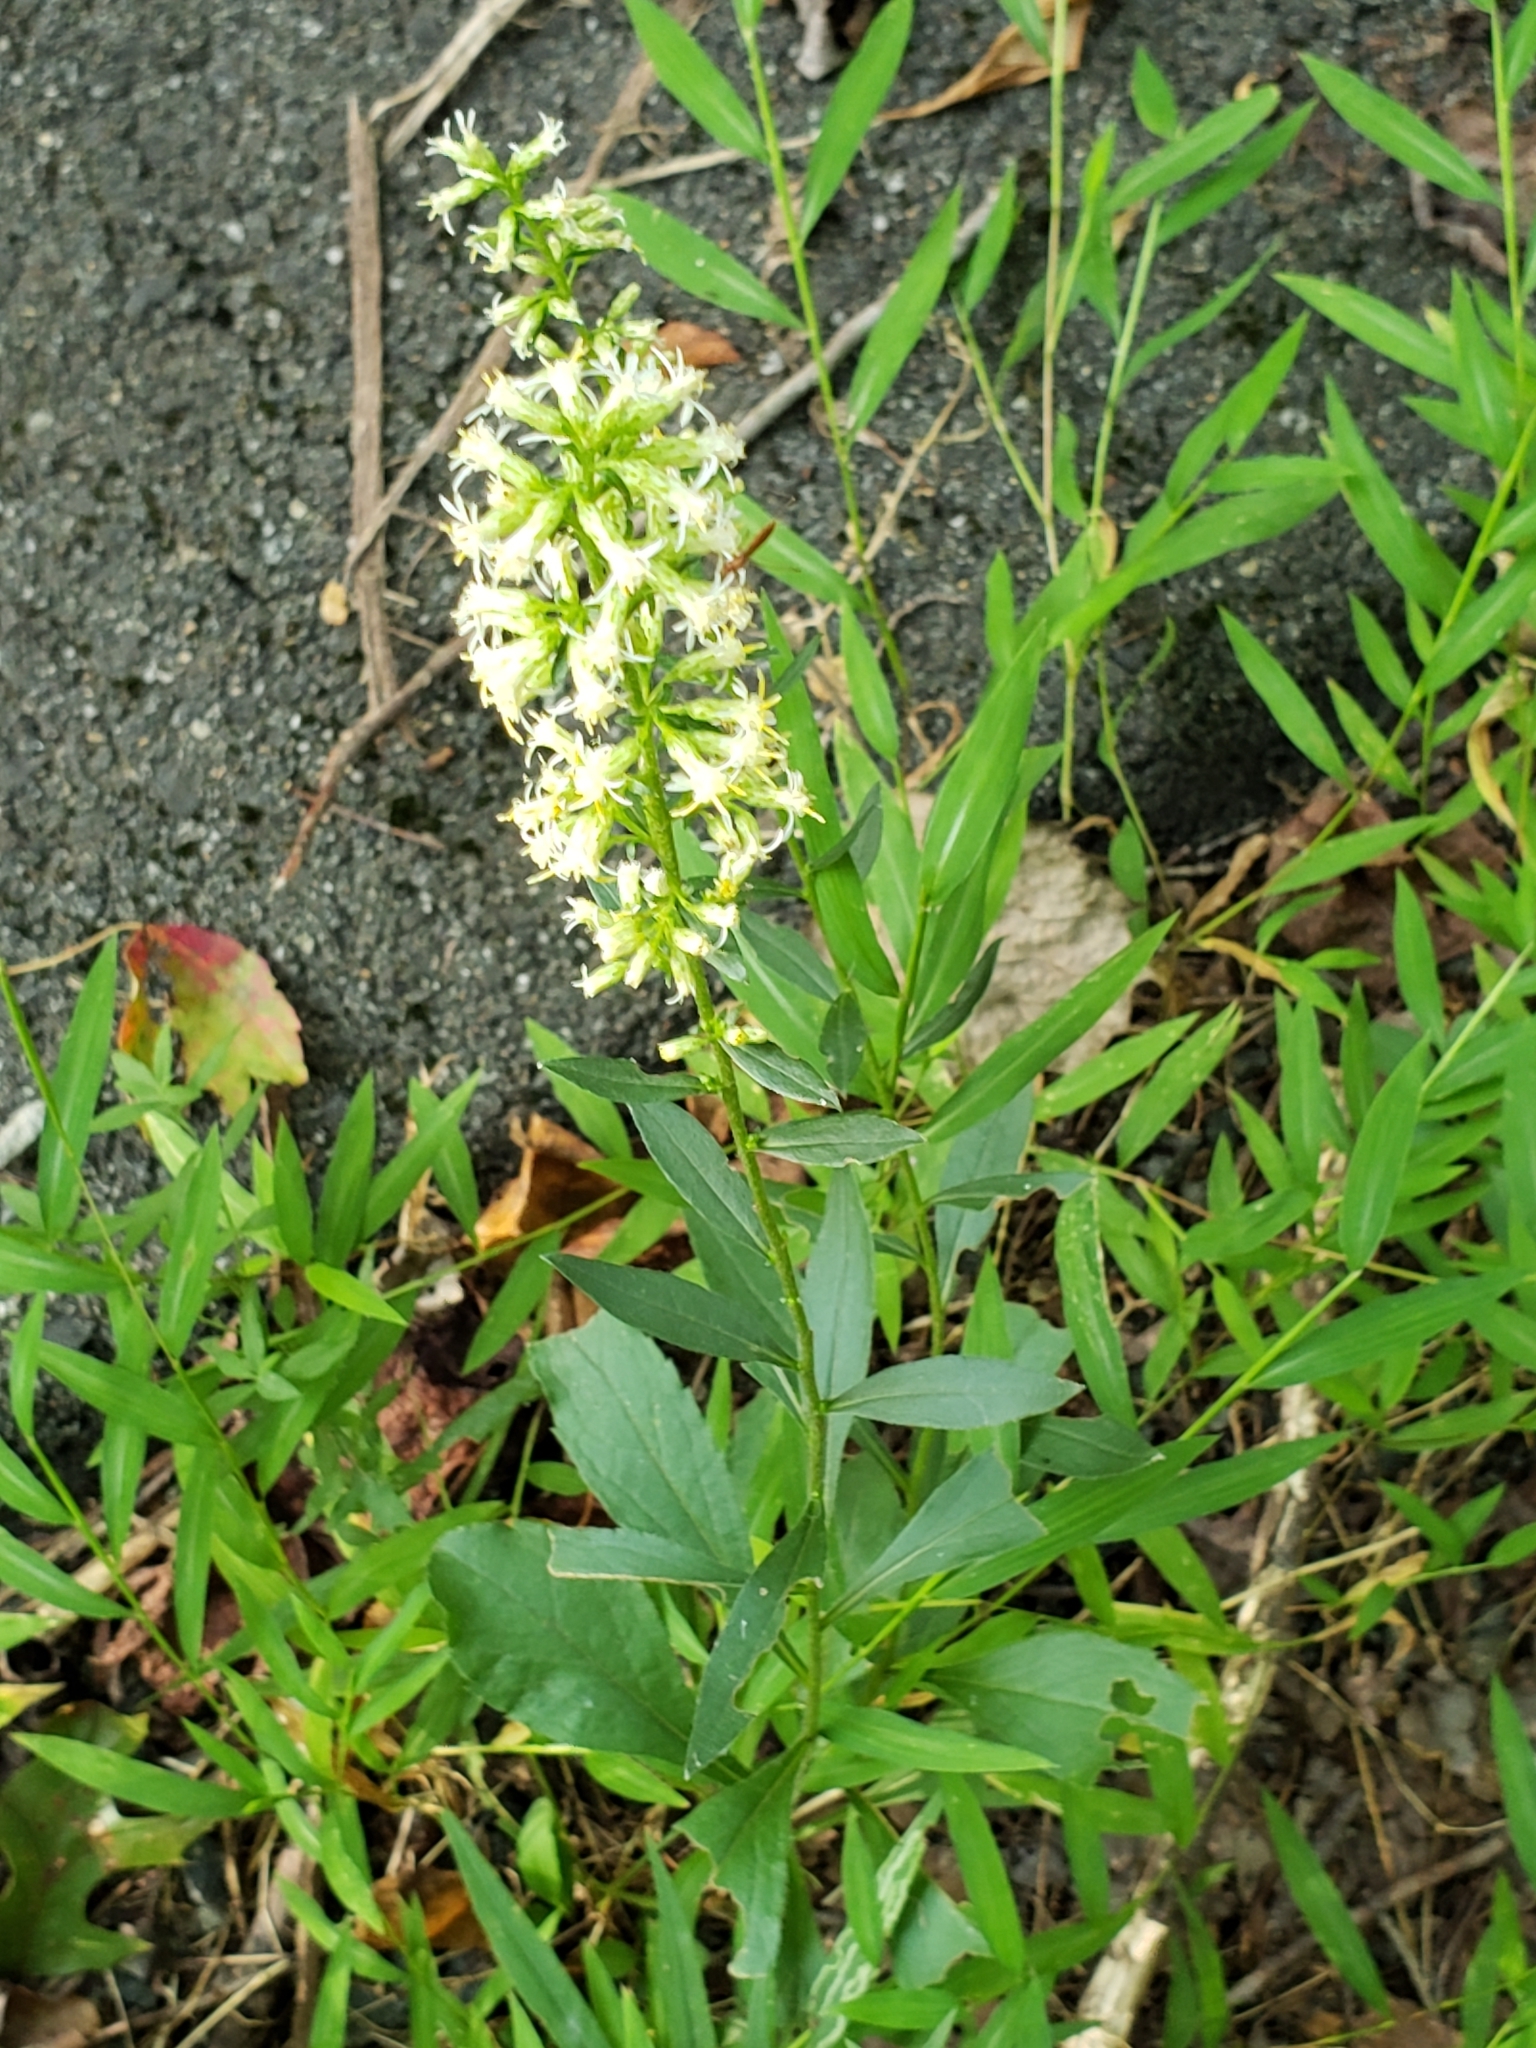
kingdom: Plantae
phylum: Tracheophyta
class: Magnoliopsida
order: Asterales
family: Asteraceae
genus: Solidago
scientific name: Solidago bicolor
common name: Silverrod
